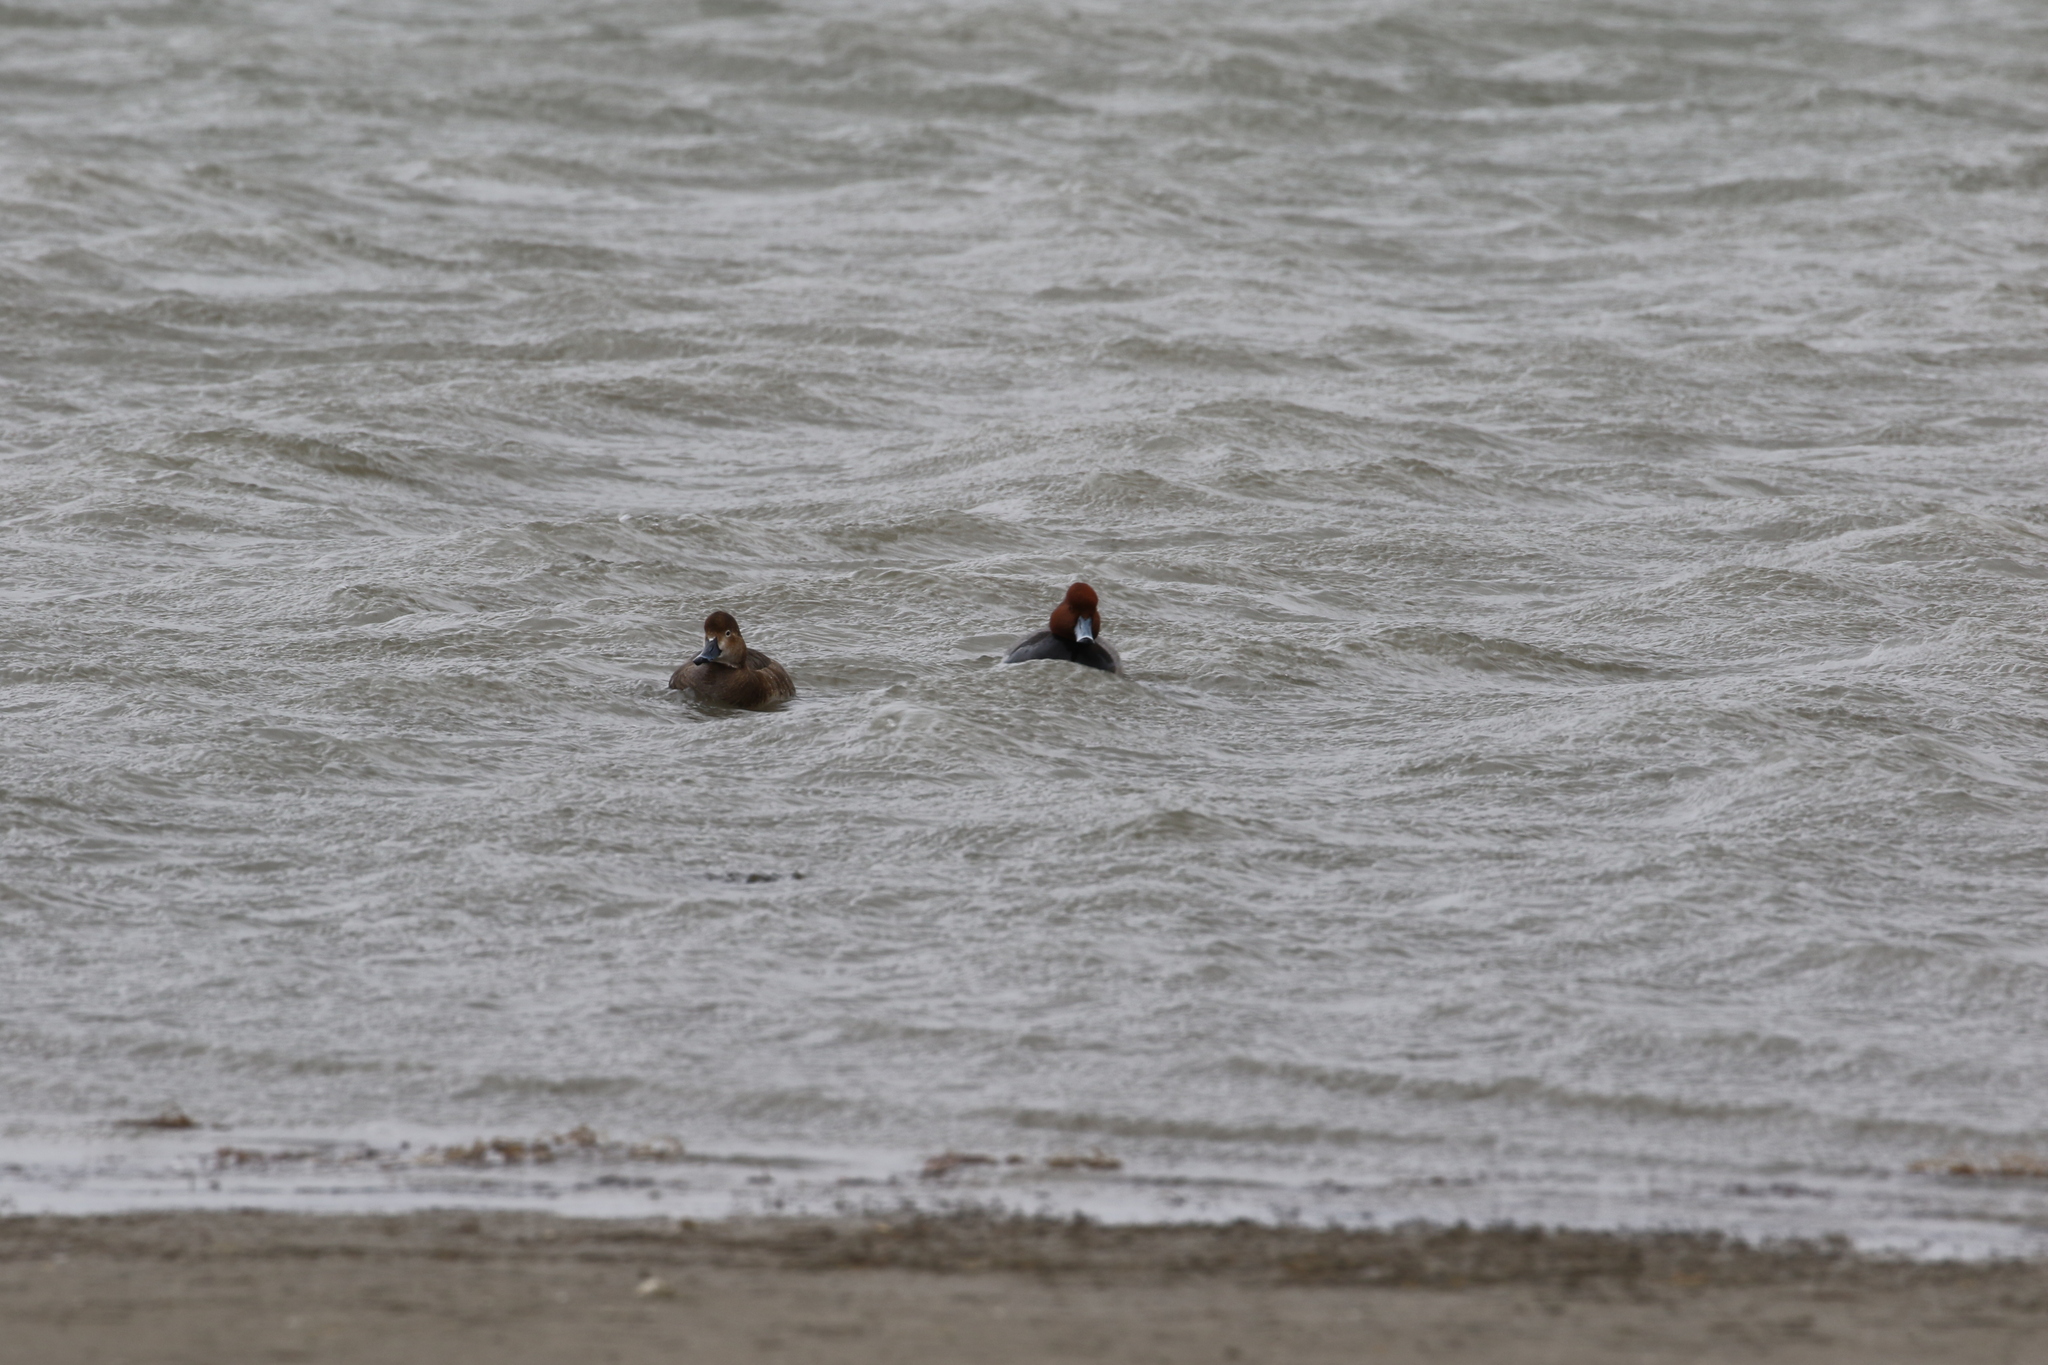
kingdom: Animalia
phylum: Chordata
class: Aves
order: Anseriformes
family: Anatidae
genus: Aythya
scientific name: Aythya americana
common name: Redhead
